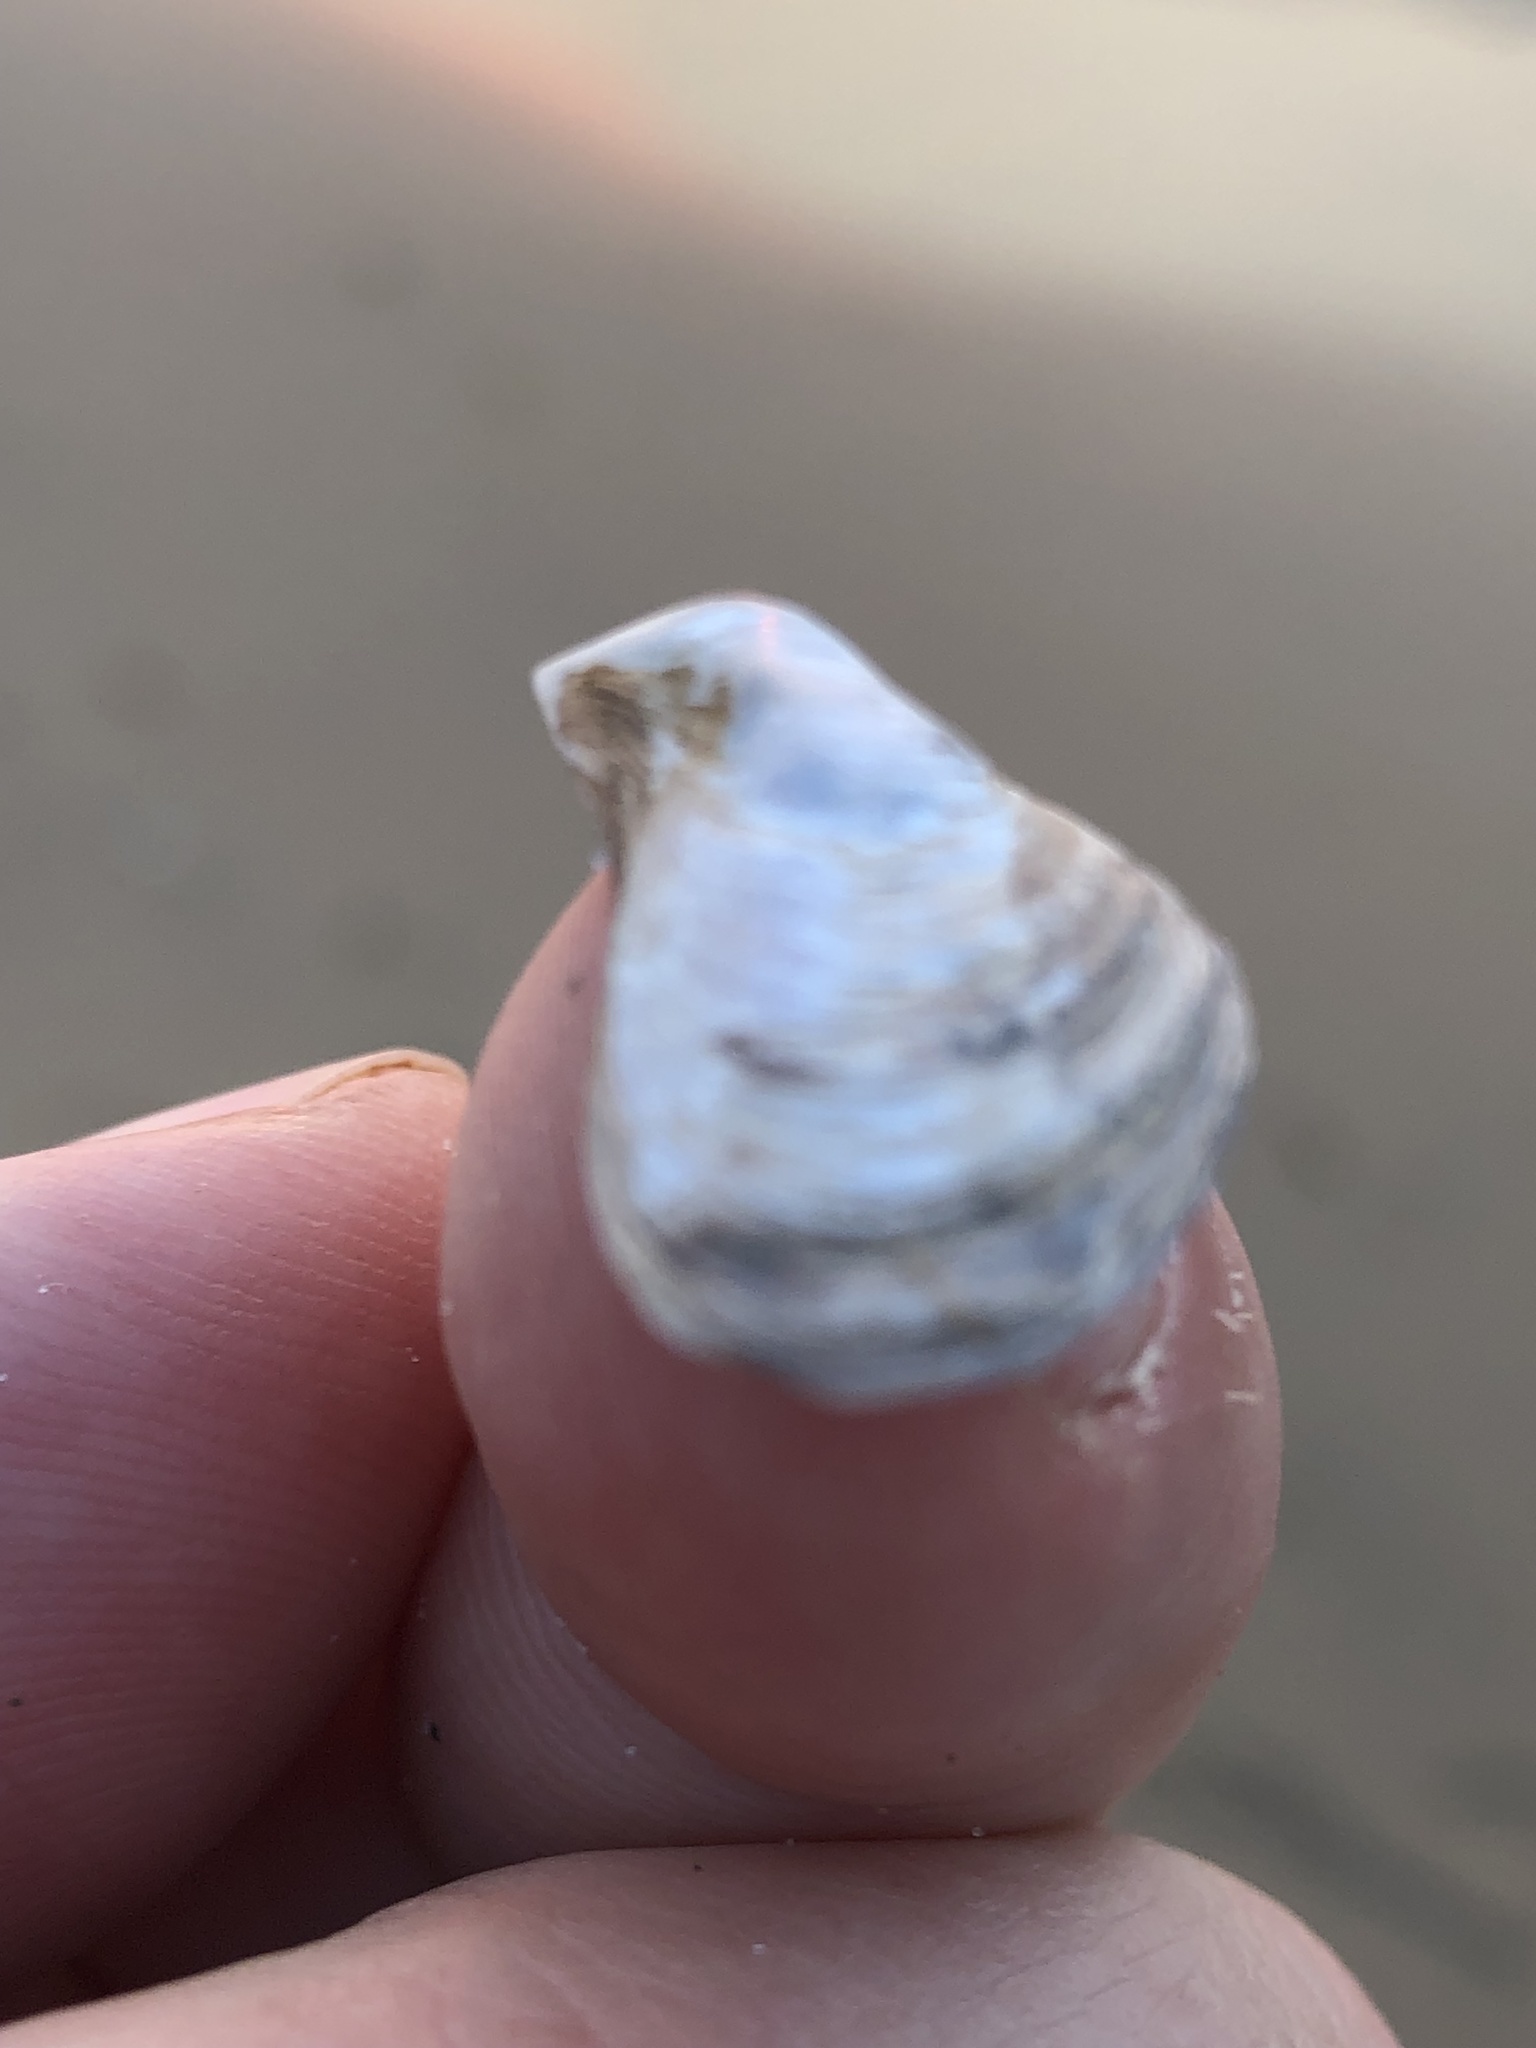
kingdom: Animalia
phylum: Mollusca
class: Bivalvia
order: Myida
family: Dreissenidae
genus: Dreissena
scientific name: Dreissena bugensis
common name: Quagga mussel
